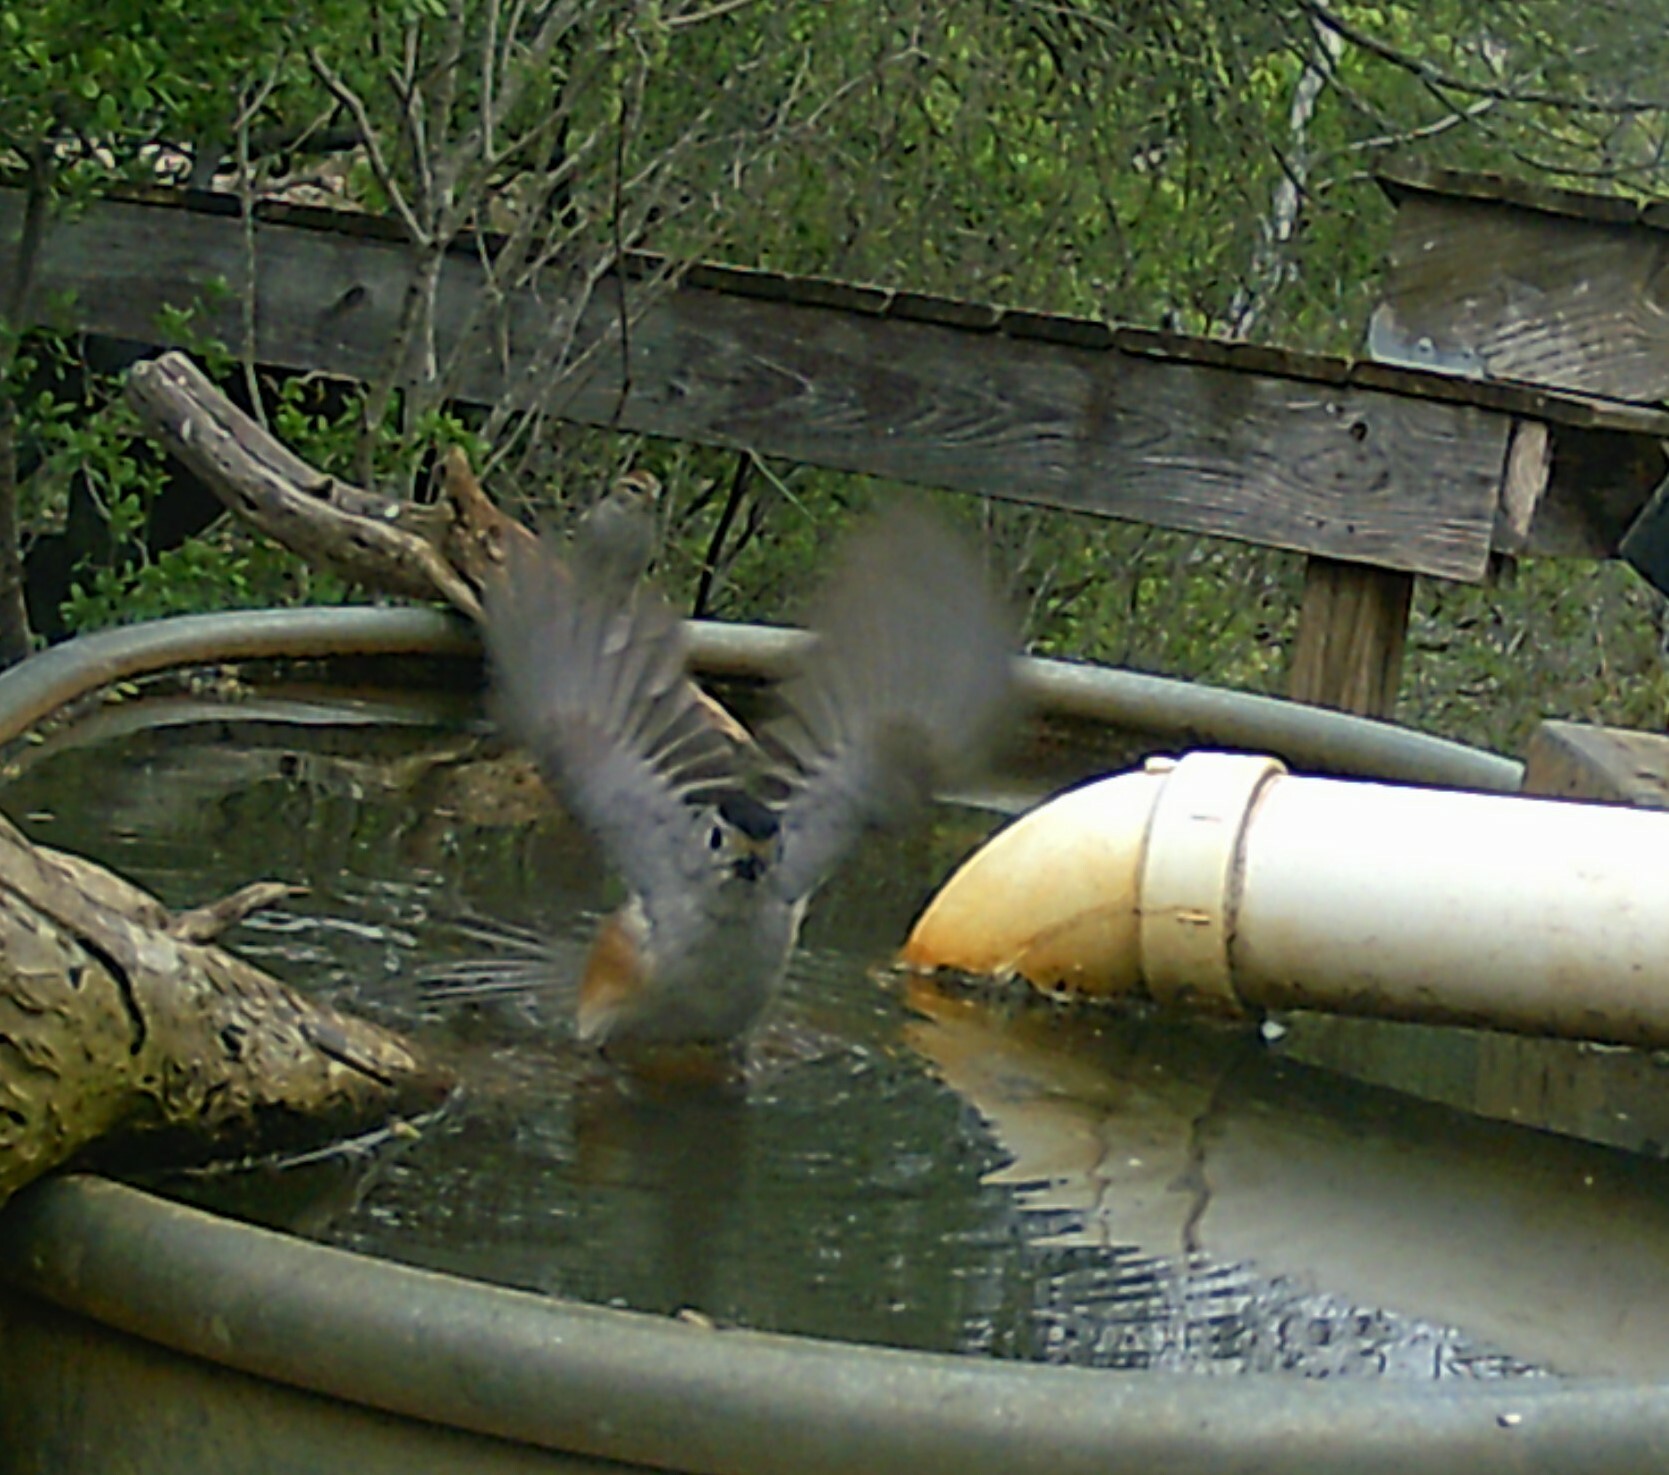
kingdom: Animalia
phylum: Chordata
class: Aves
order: Passeriformes
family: Paridae
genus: Baeolophus
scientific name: Baeolophus atricristatus
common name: Black-crested titmouse
